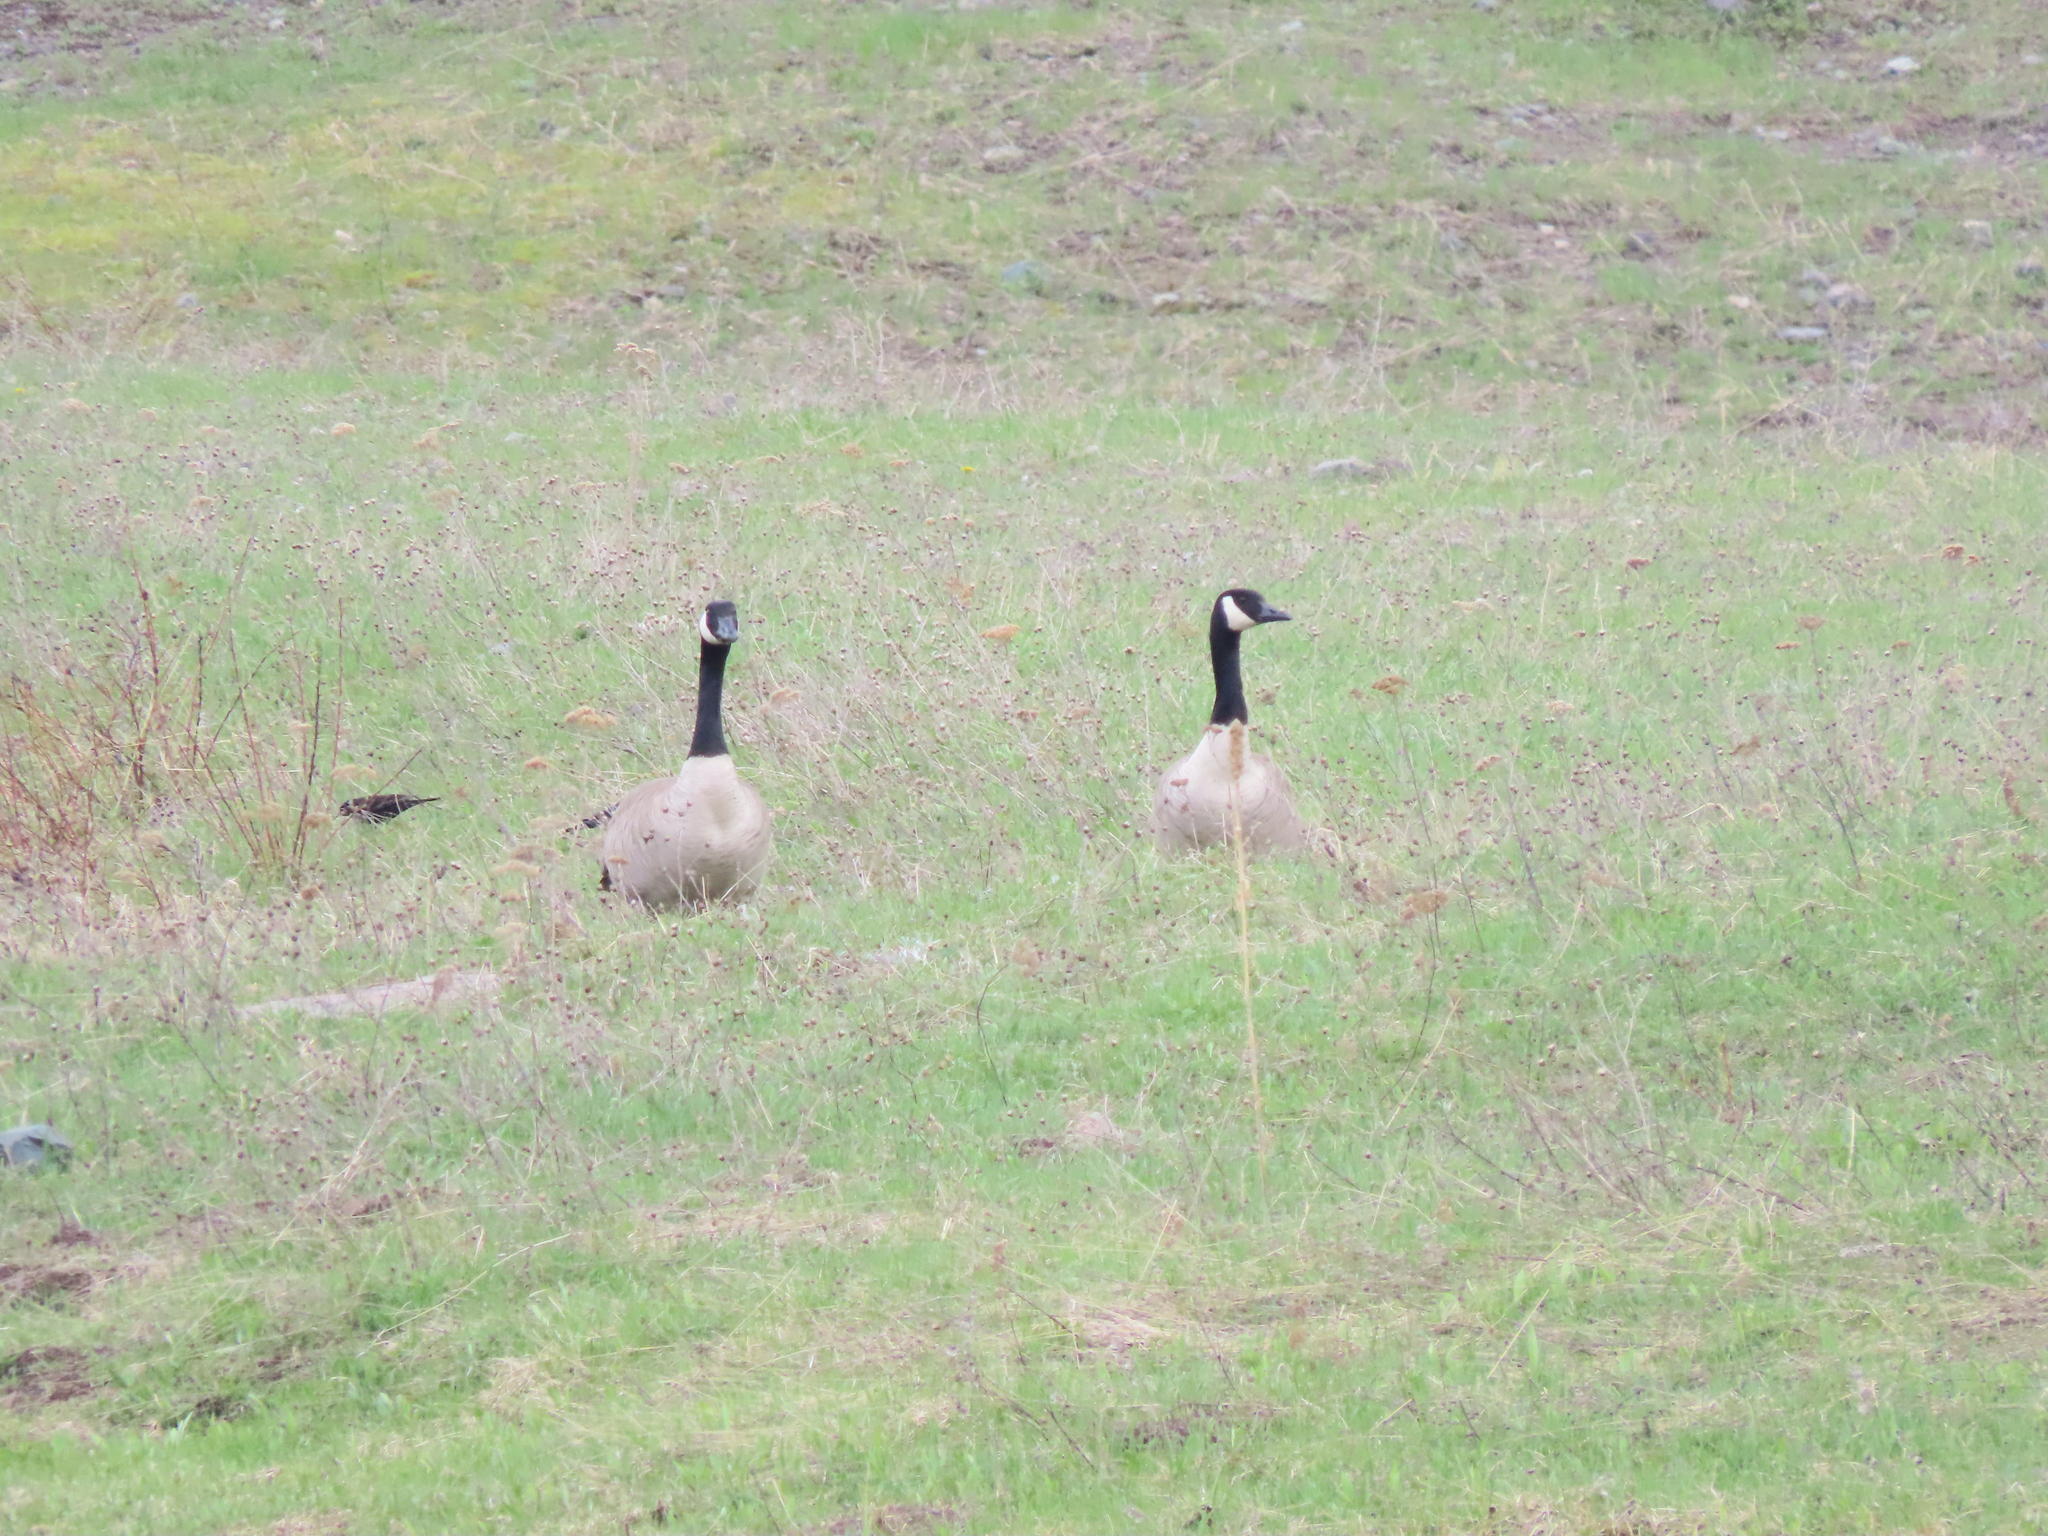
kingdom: Animalia
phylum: Chordata
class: Aves
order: Anseriformes
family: Anatidae
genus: Branta
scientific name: Branta canadensis
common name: Canada goose
